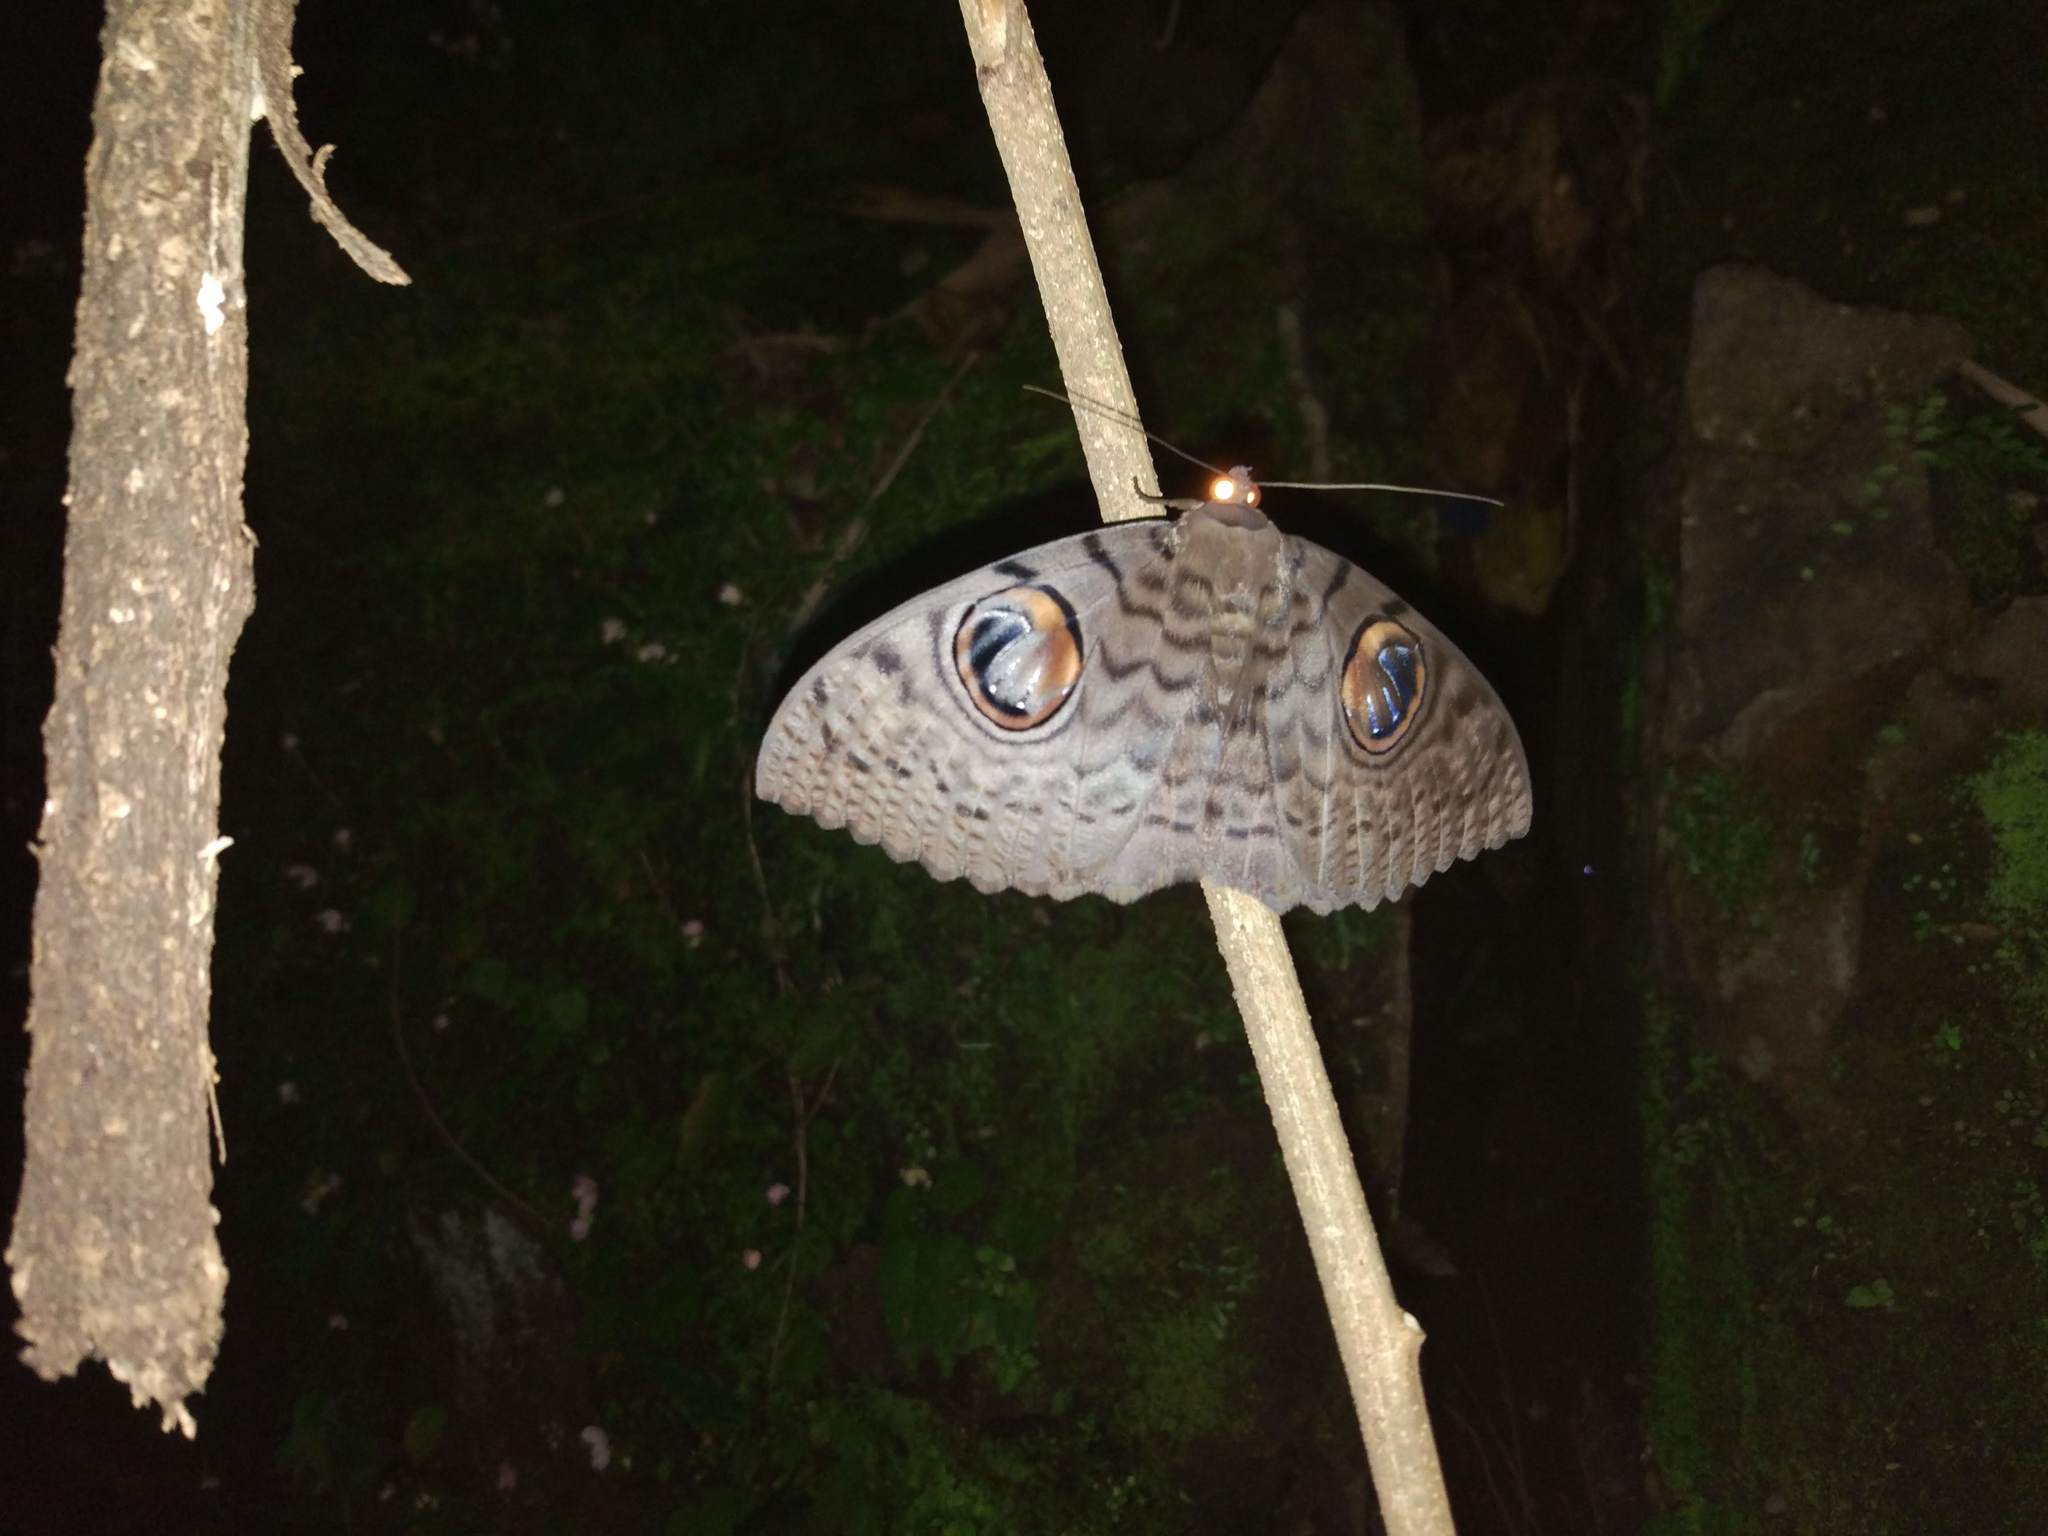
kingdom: Animalia
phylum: Arthropoda
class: Insecta
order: Lepidoptera
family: Erebidae
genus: Erebus
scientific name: Erebus macrops
